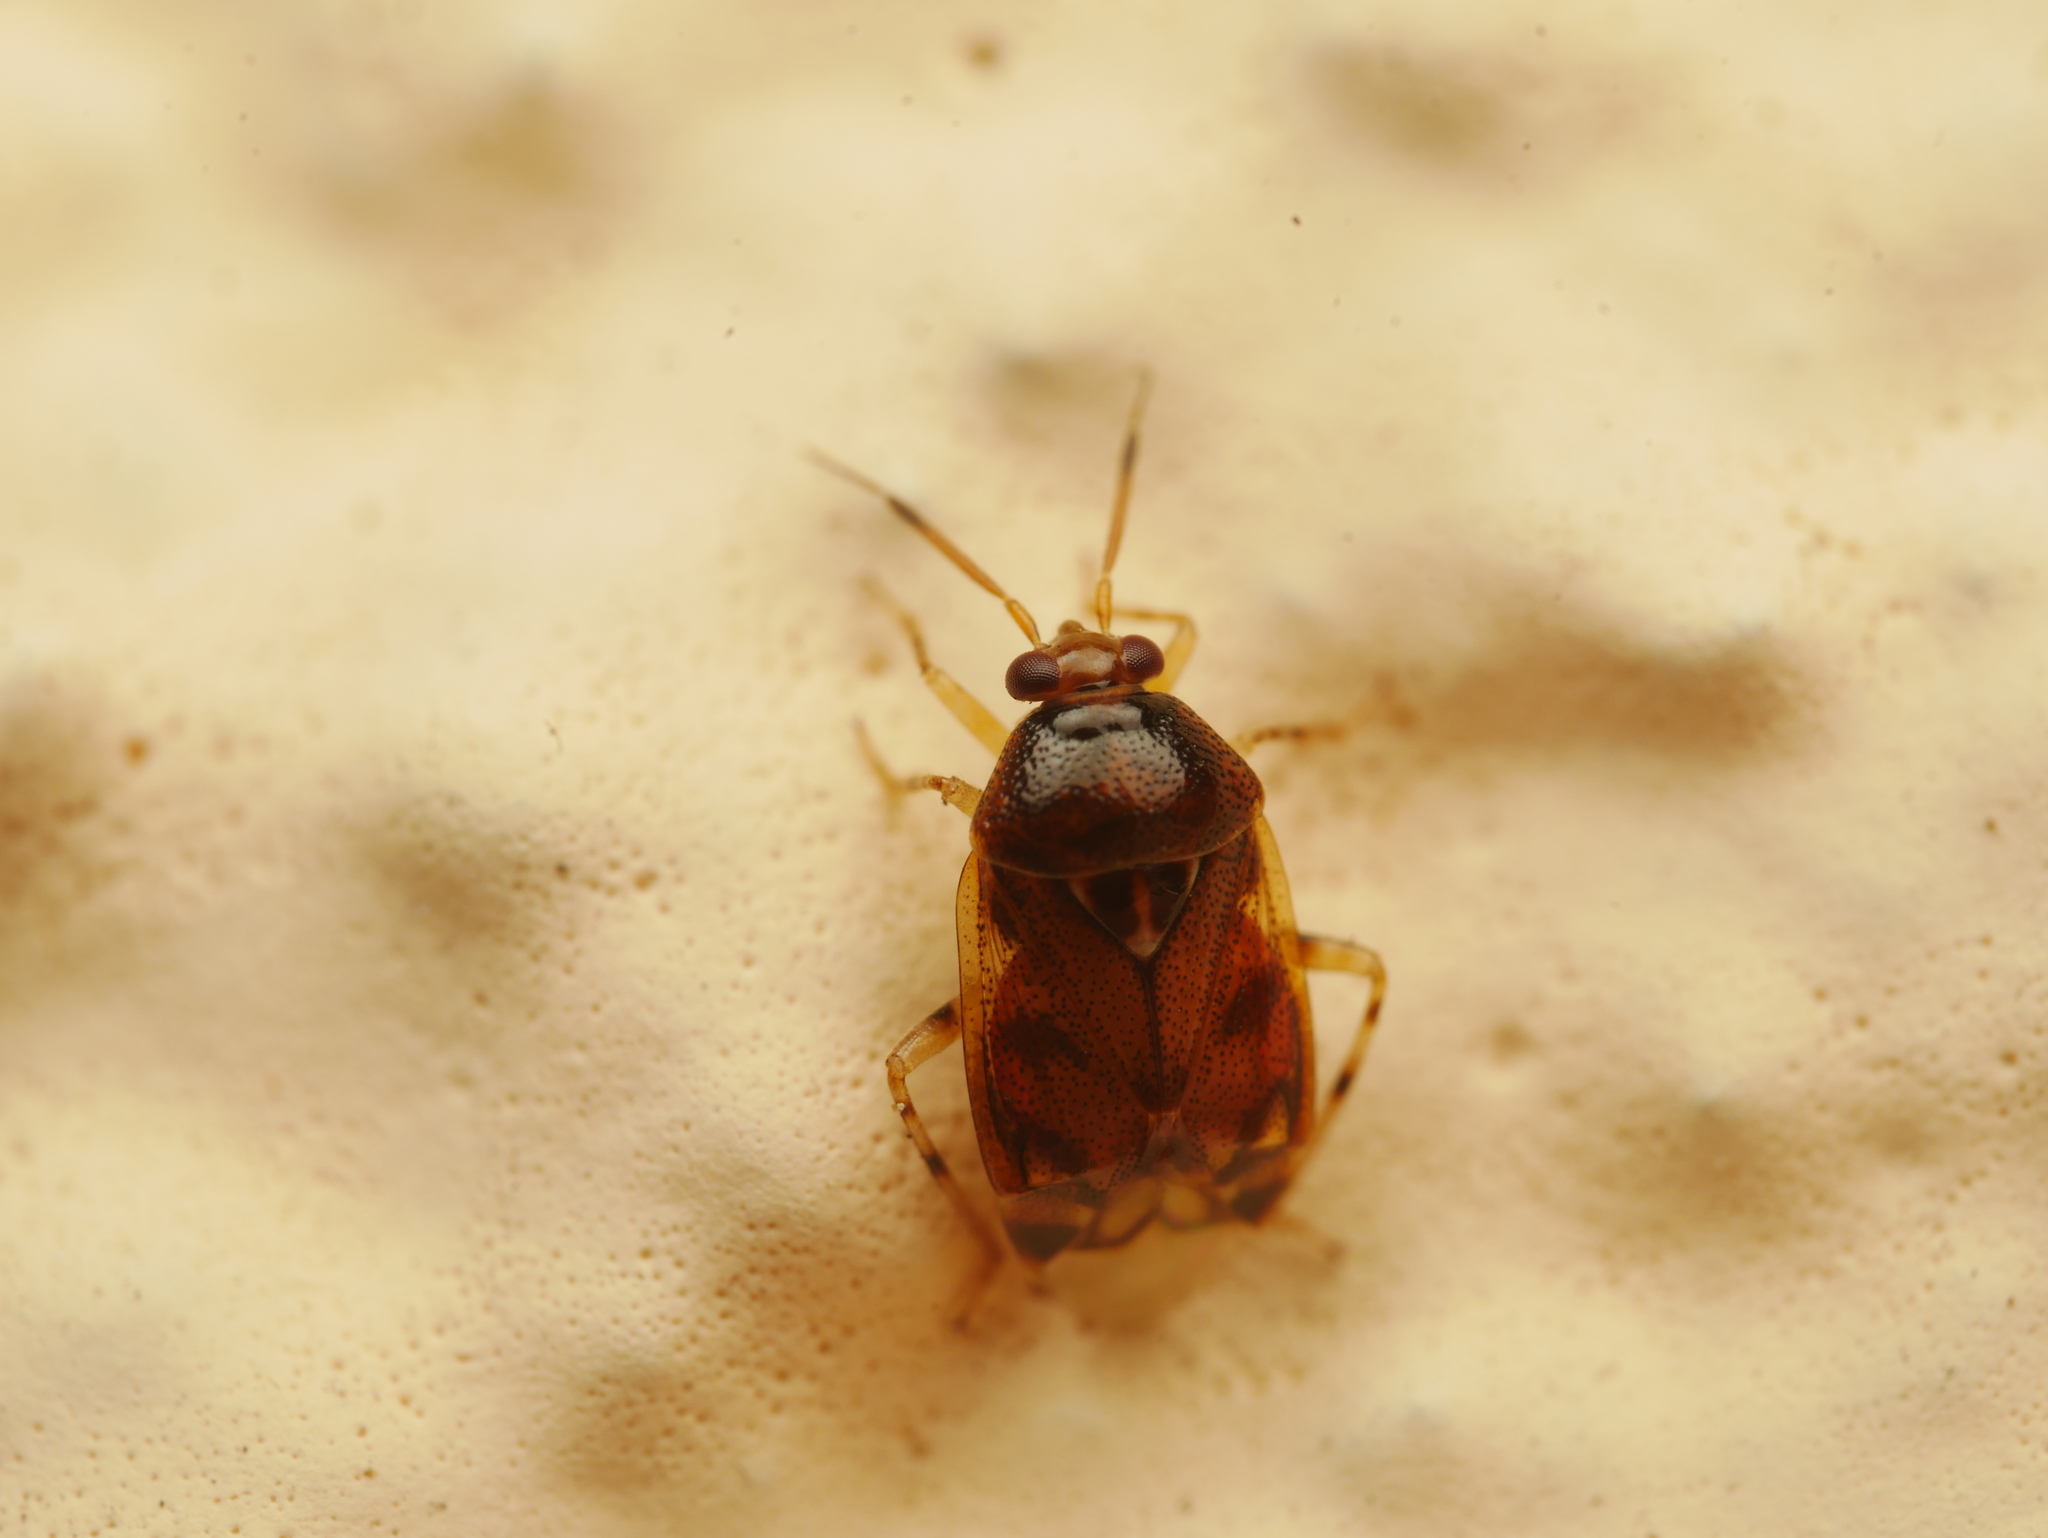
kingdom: Animalia
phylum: Arthropoda
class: Insecta
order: Hemiptera
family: Miridae
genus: Deraeocoris
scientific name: Deraeocoris lutescens
